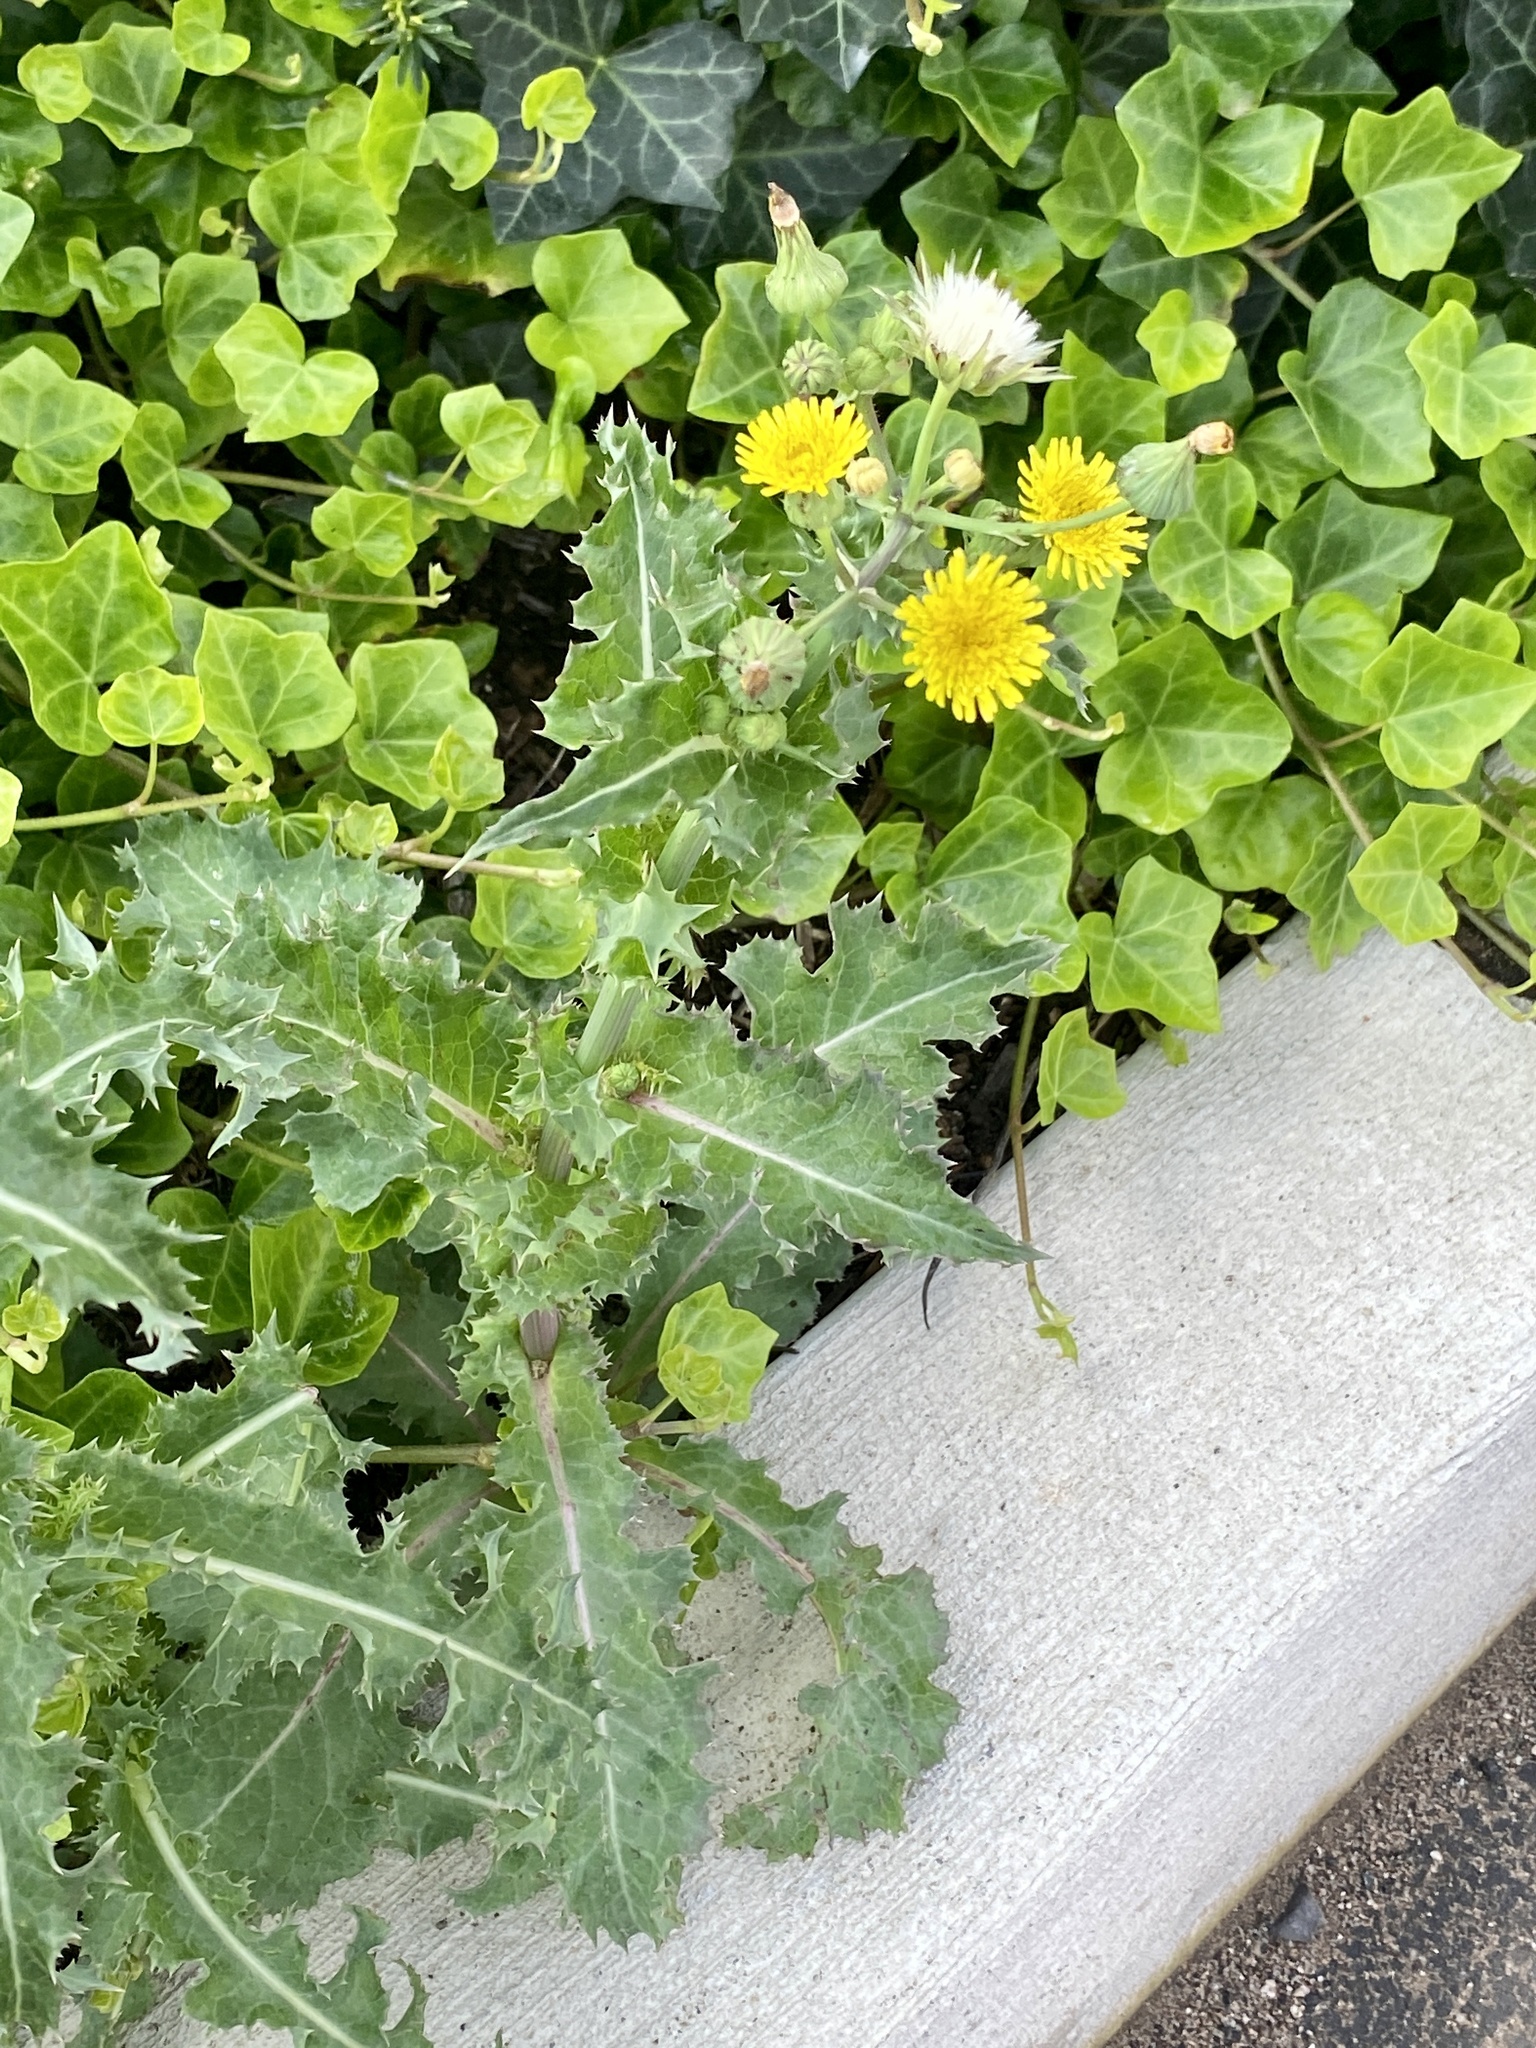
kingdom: Plantae
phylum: Tracheophyta
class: Magnoliopsida
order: Asterales
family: Asteraceae
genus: Sonchus
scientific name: Sonchus asper
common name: Prickly sow-thistle
